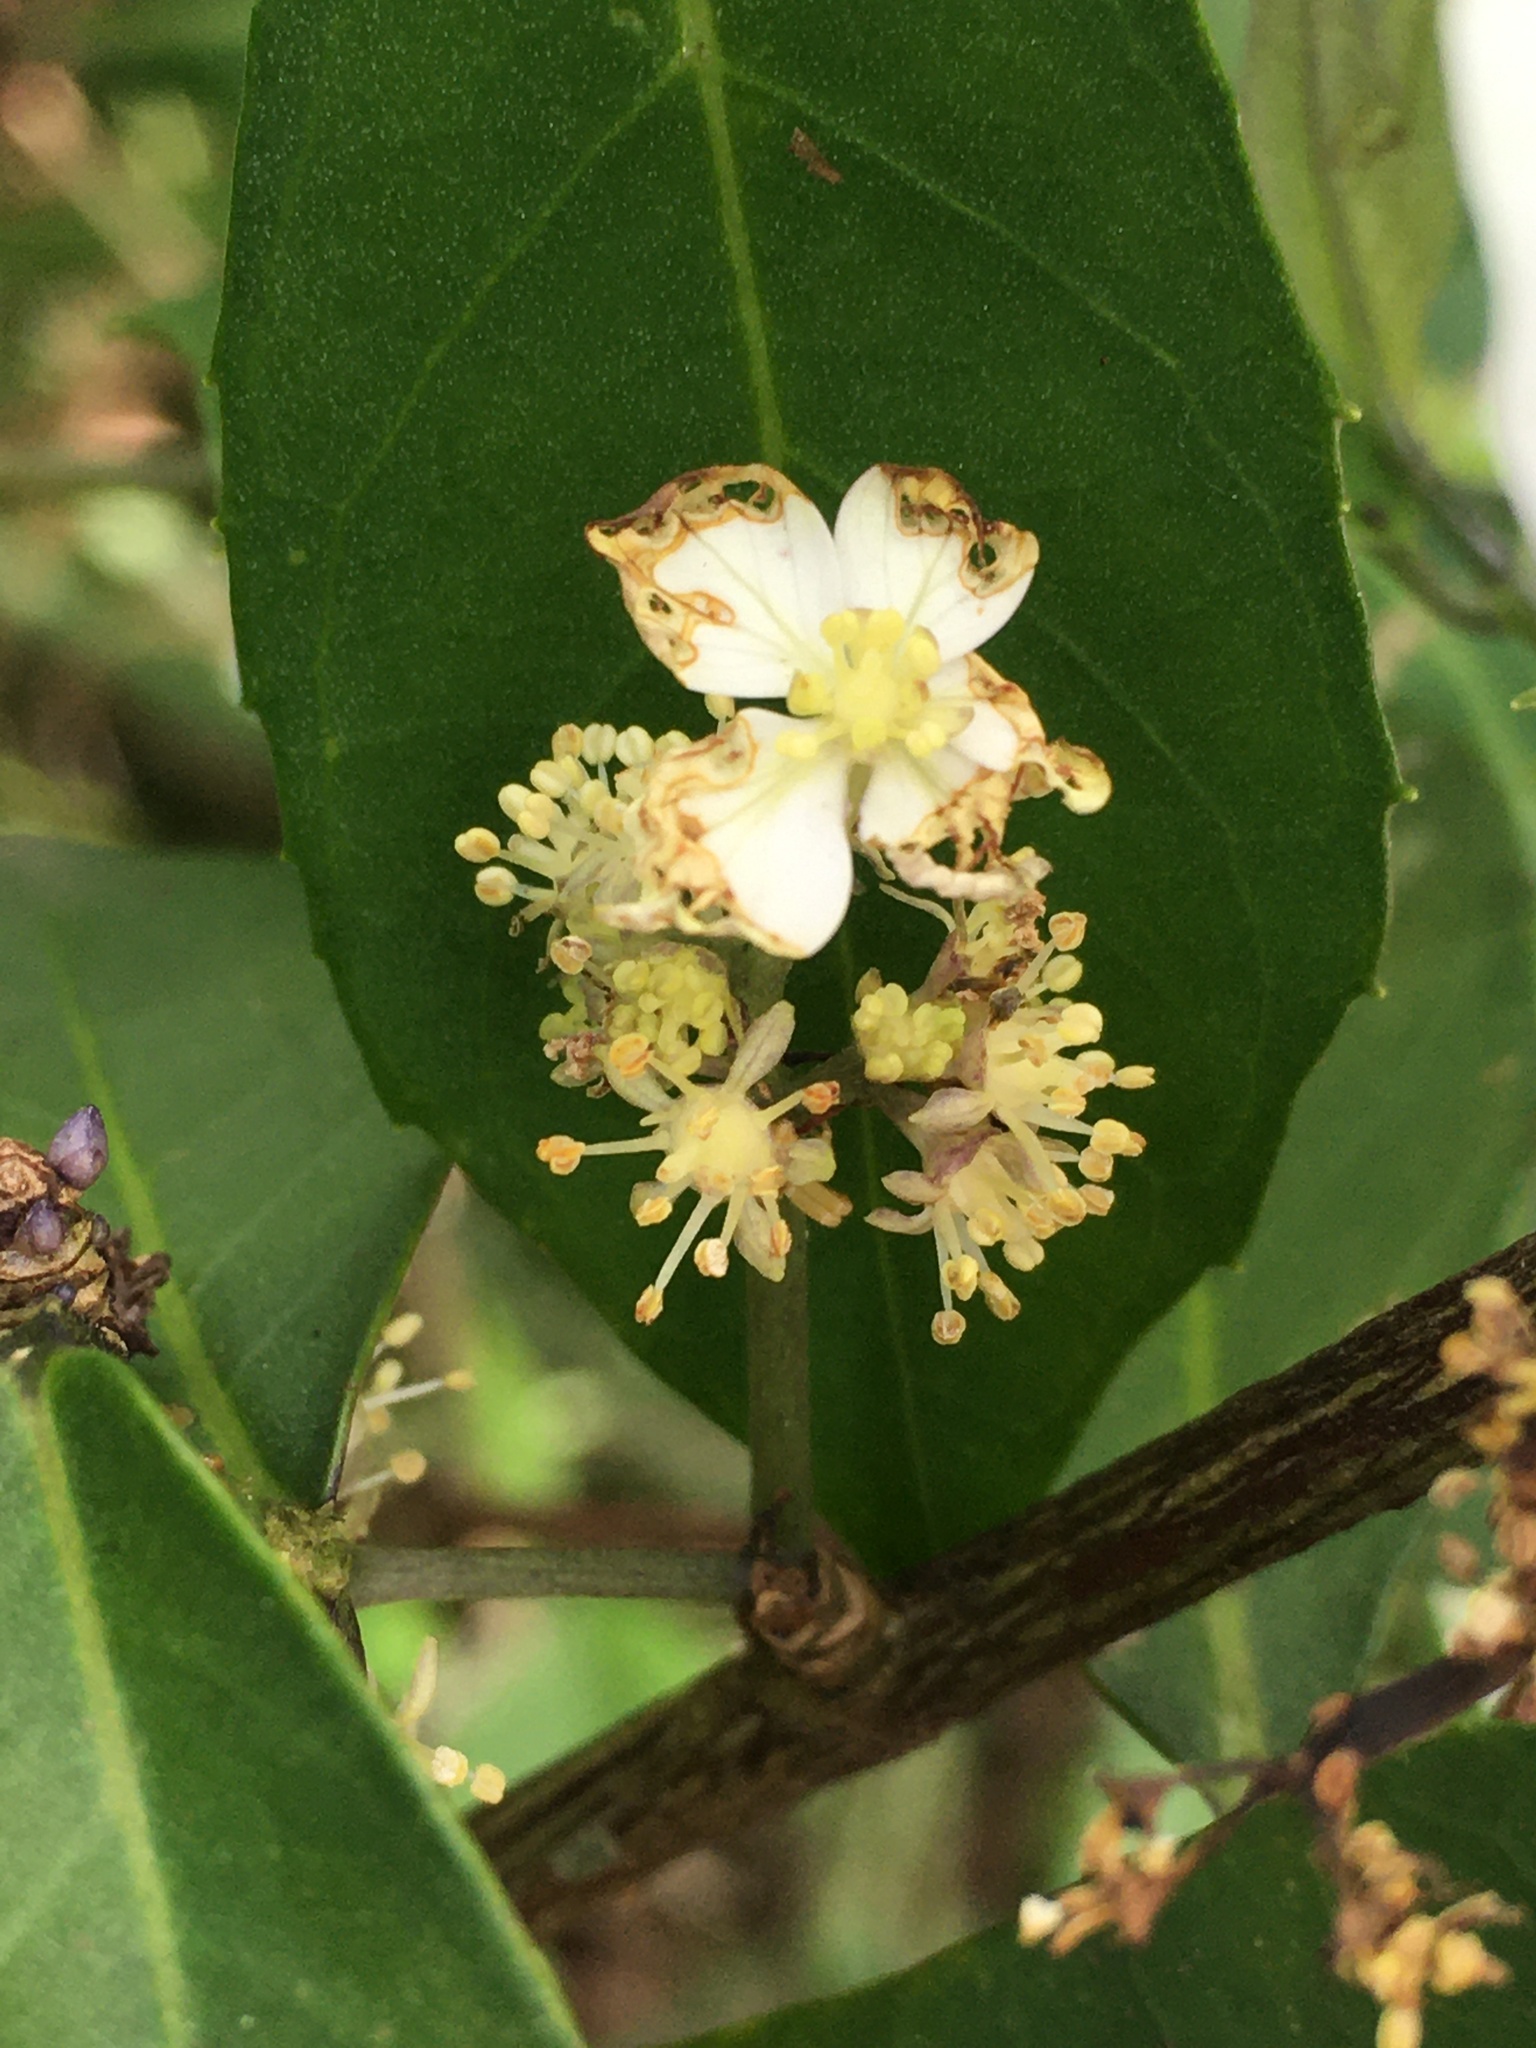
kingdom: Plantae
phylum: Tracheophyta
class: Magnoliopsida
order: Cornales
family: Hydrangeaceae
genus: Hydrangea
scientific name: Hydrangea chinensis
